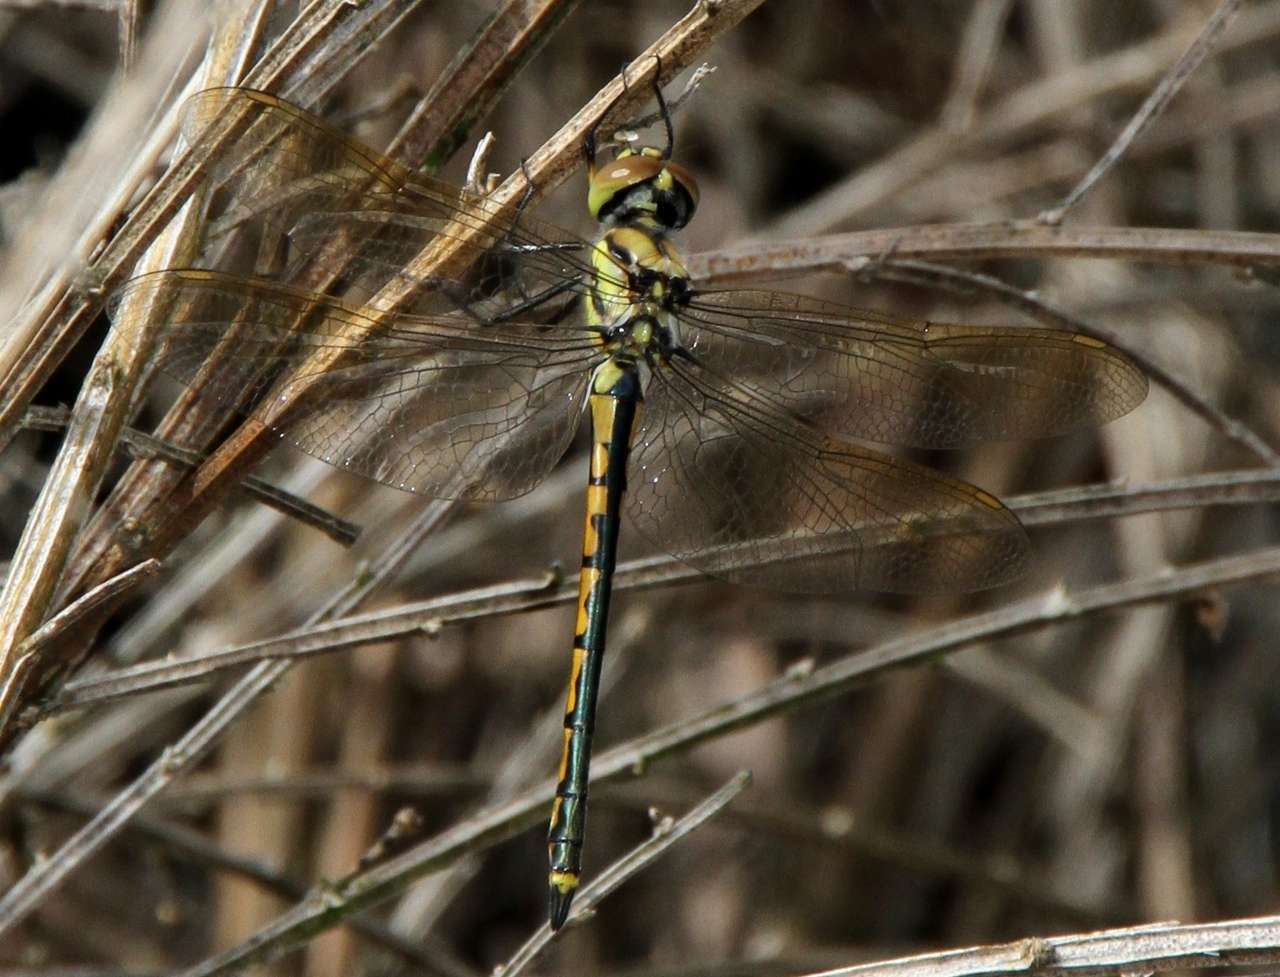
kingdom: Animalia
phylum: Arthropoda
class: Insecta
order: Odonata
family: Corduliidae
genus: Hemicordulia
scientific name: Hemicordulia tau
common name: Tau emerald
